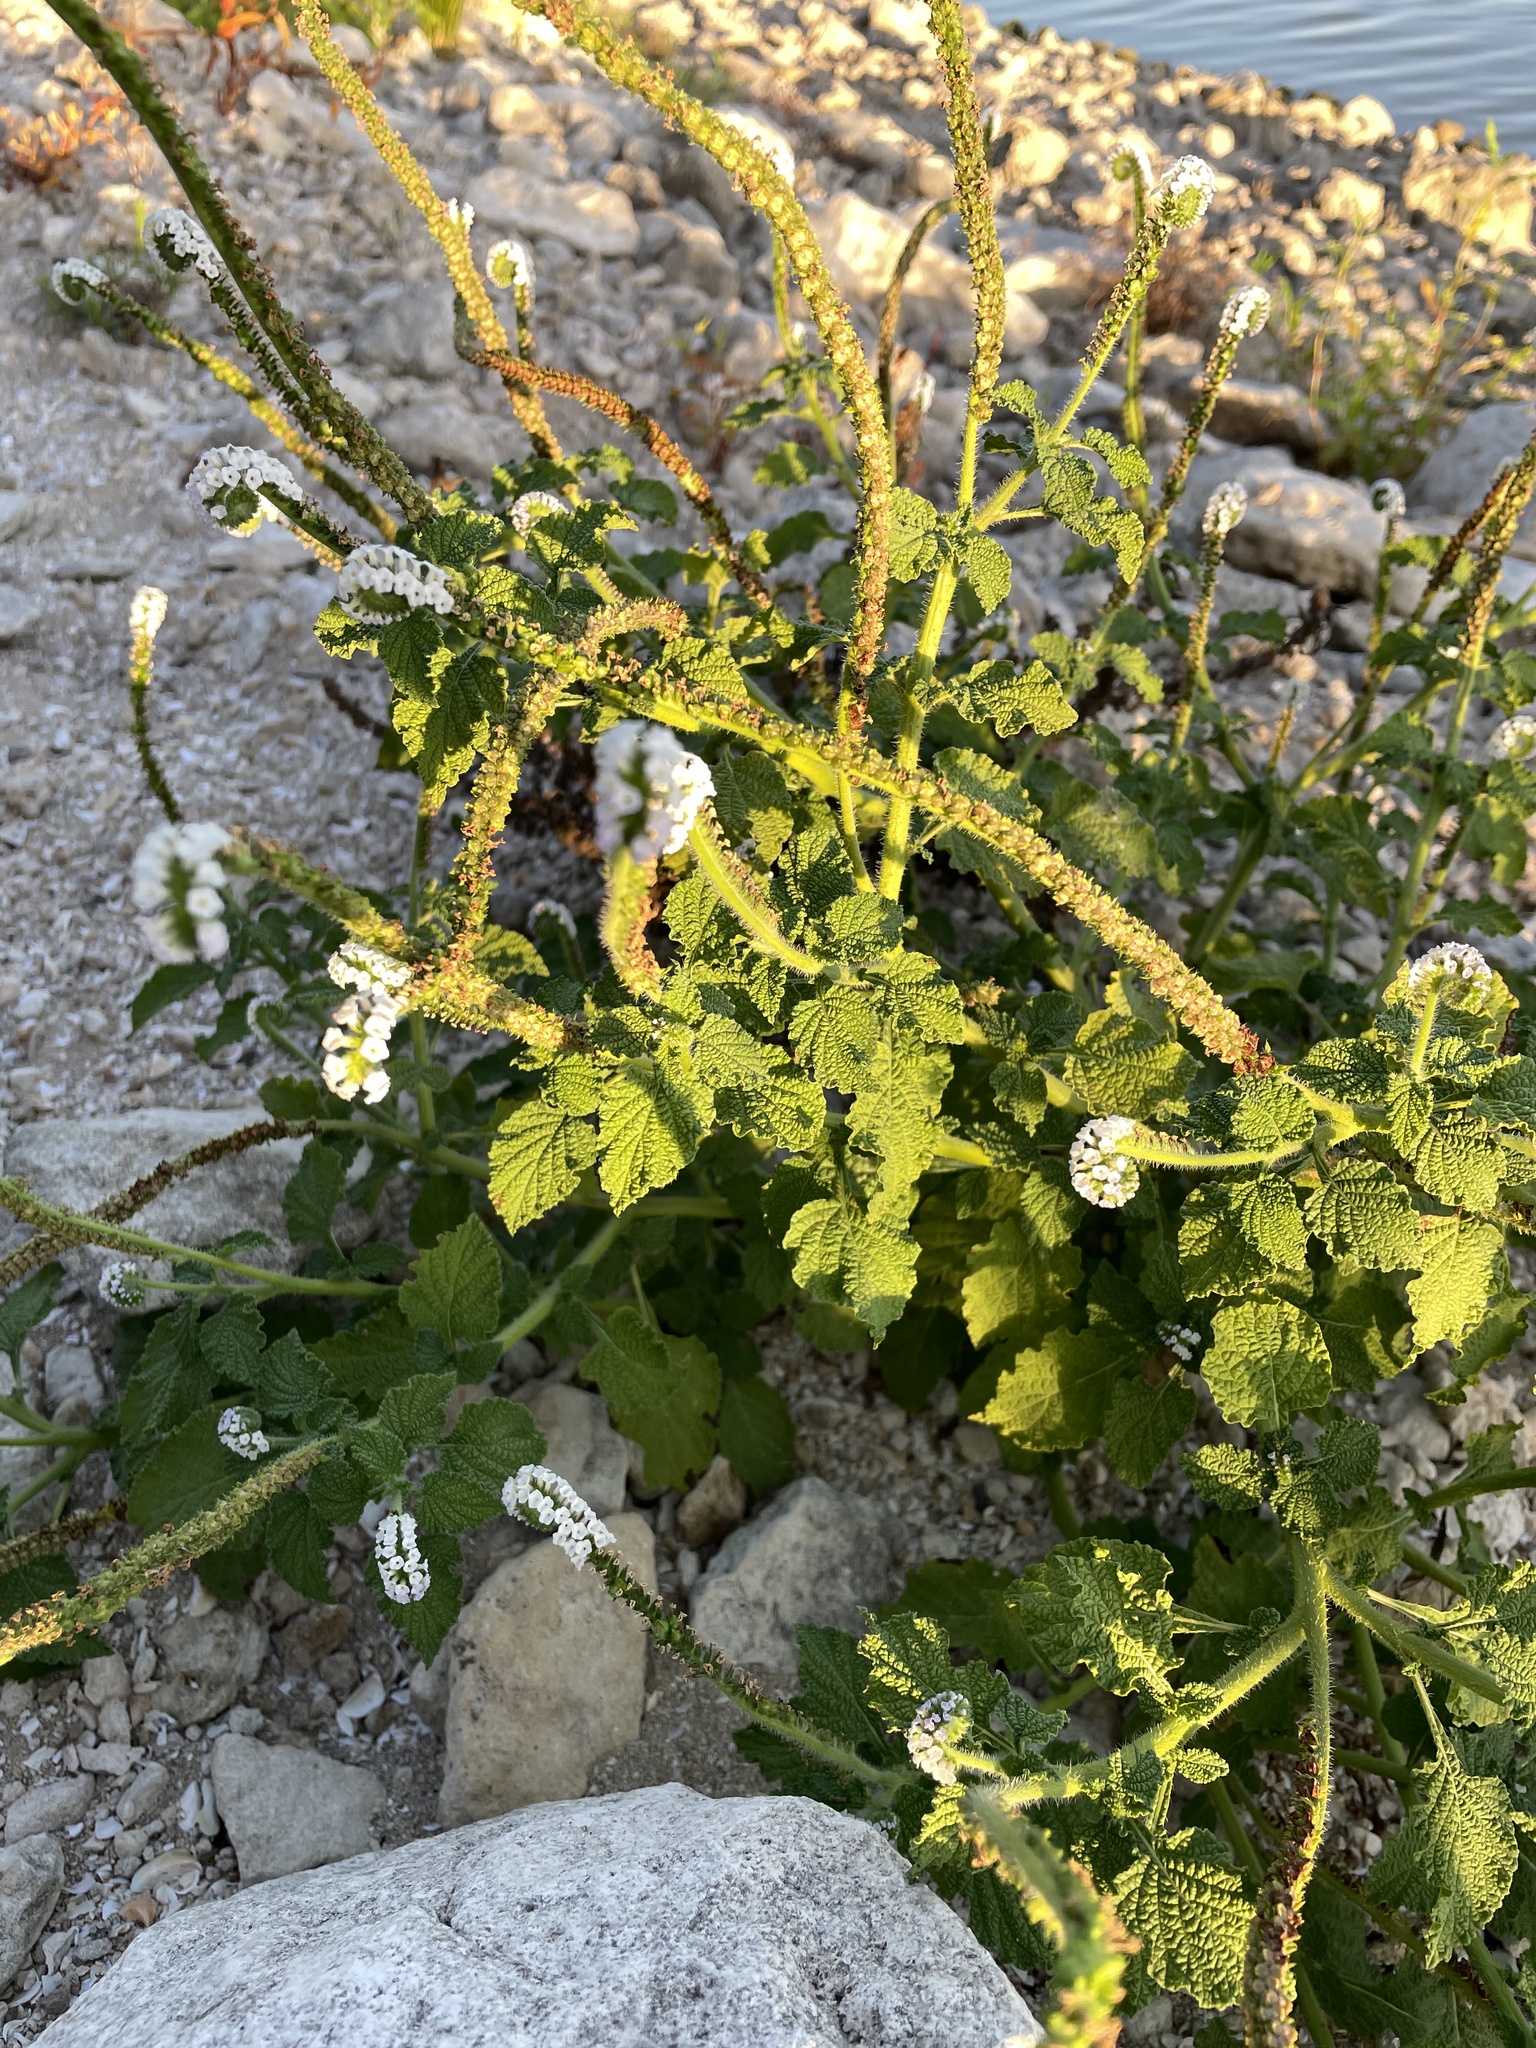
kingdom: Plantae
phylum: Tracheophyta
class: Magnoliopsida
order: Boraginales
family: Heliotropiaceae
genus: Heliotropium
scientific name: Heliotropium indicum
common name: Indian heliotrope
